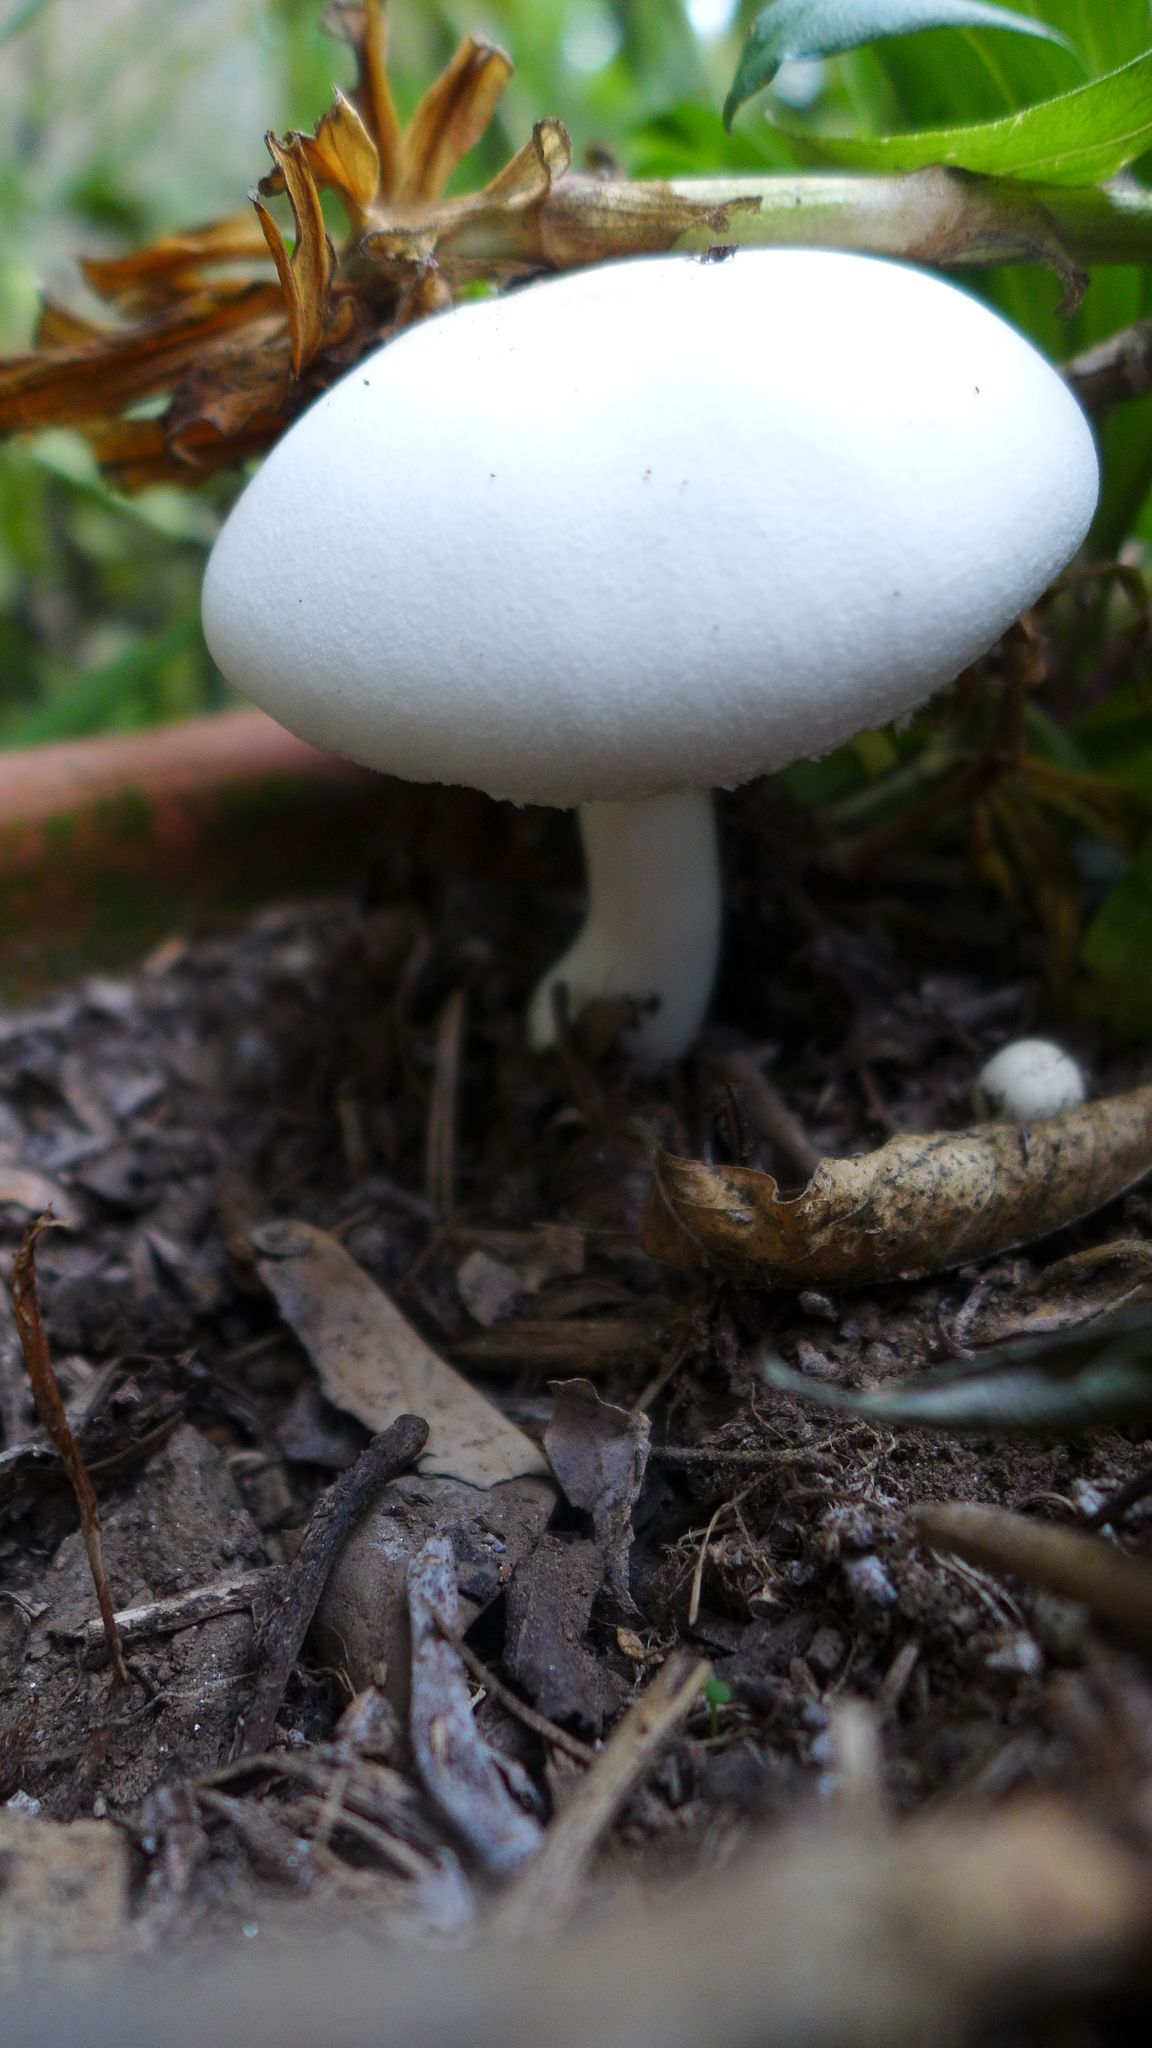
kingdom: Fungi
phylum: Basidiomycota
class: Agaricomycetes
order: Agaricales
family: Agaricaceae
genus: Leucoagaricus
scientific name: Leucoagaricus leucothites
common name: White dapperling
